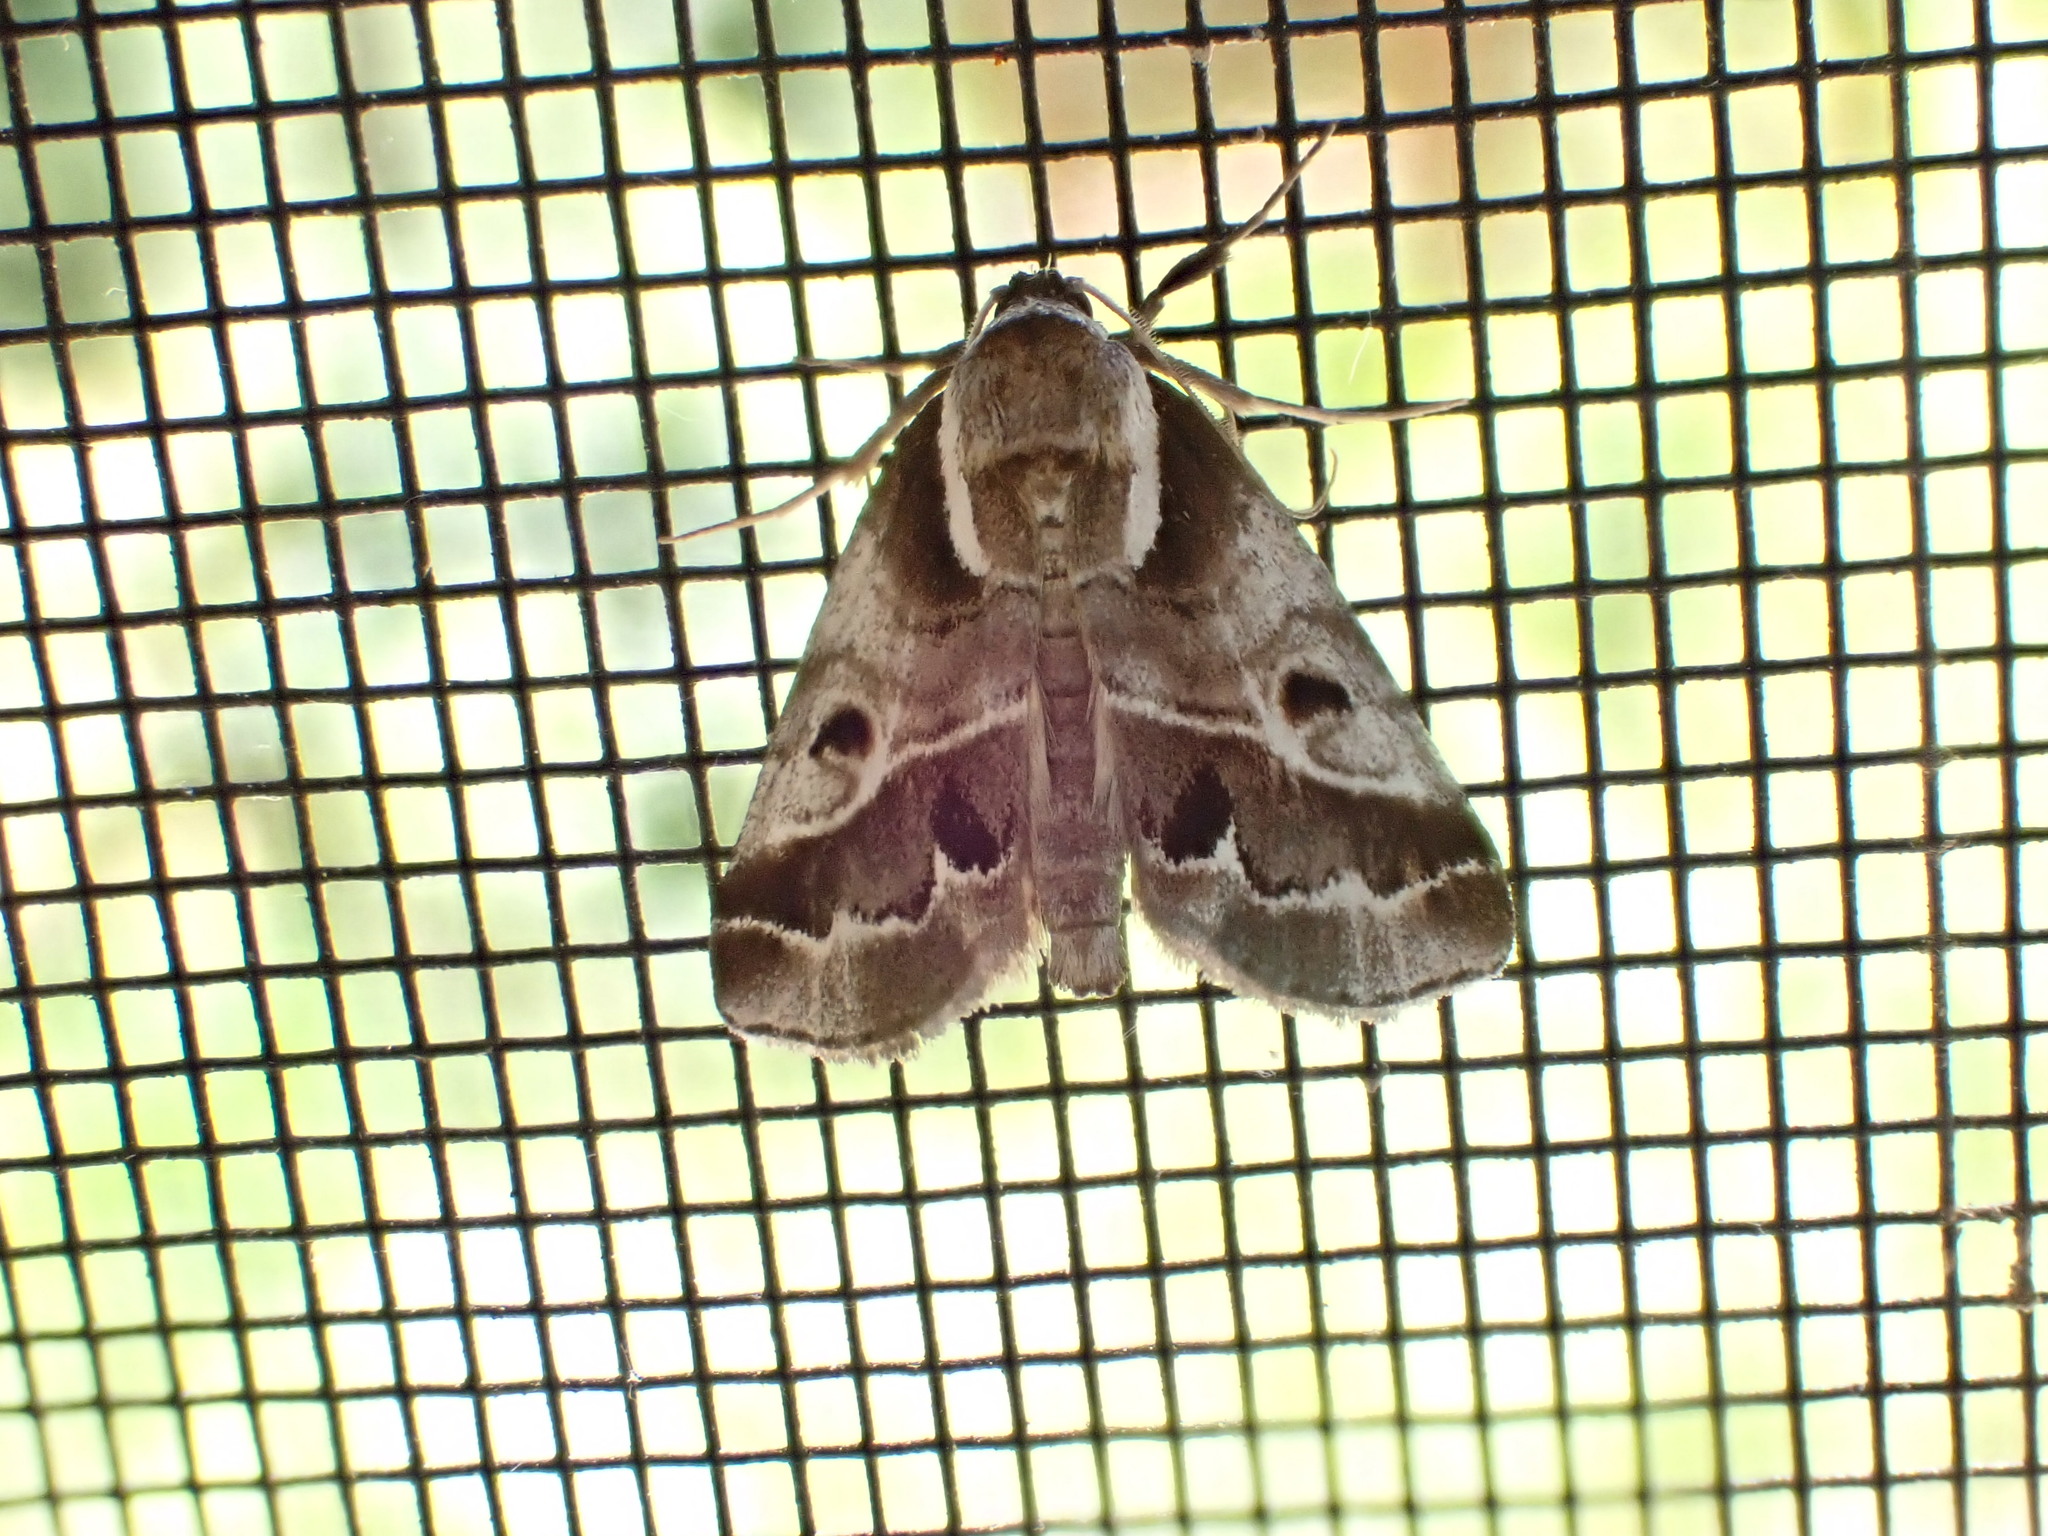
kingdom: Animalia
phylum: Arthropoda
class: Insecta
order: Lepidoptera
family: Nolidae
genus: Baileya
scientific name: Baileya doubledayi
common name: Doubleday's baileya moth
